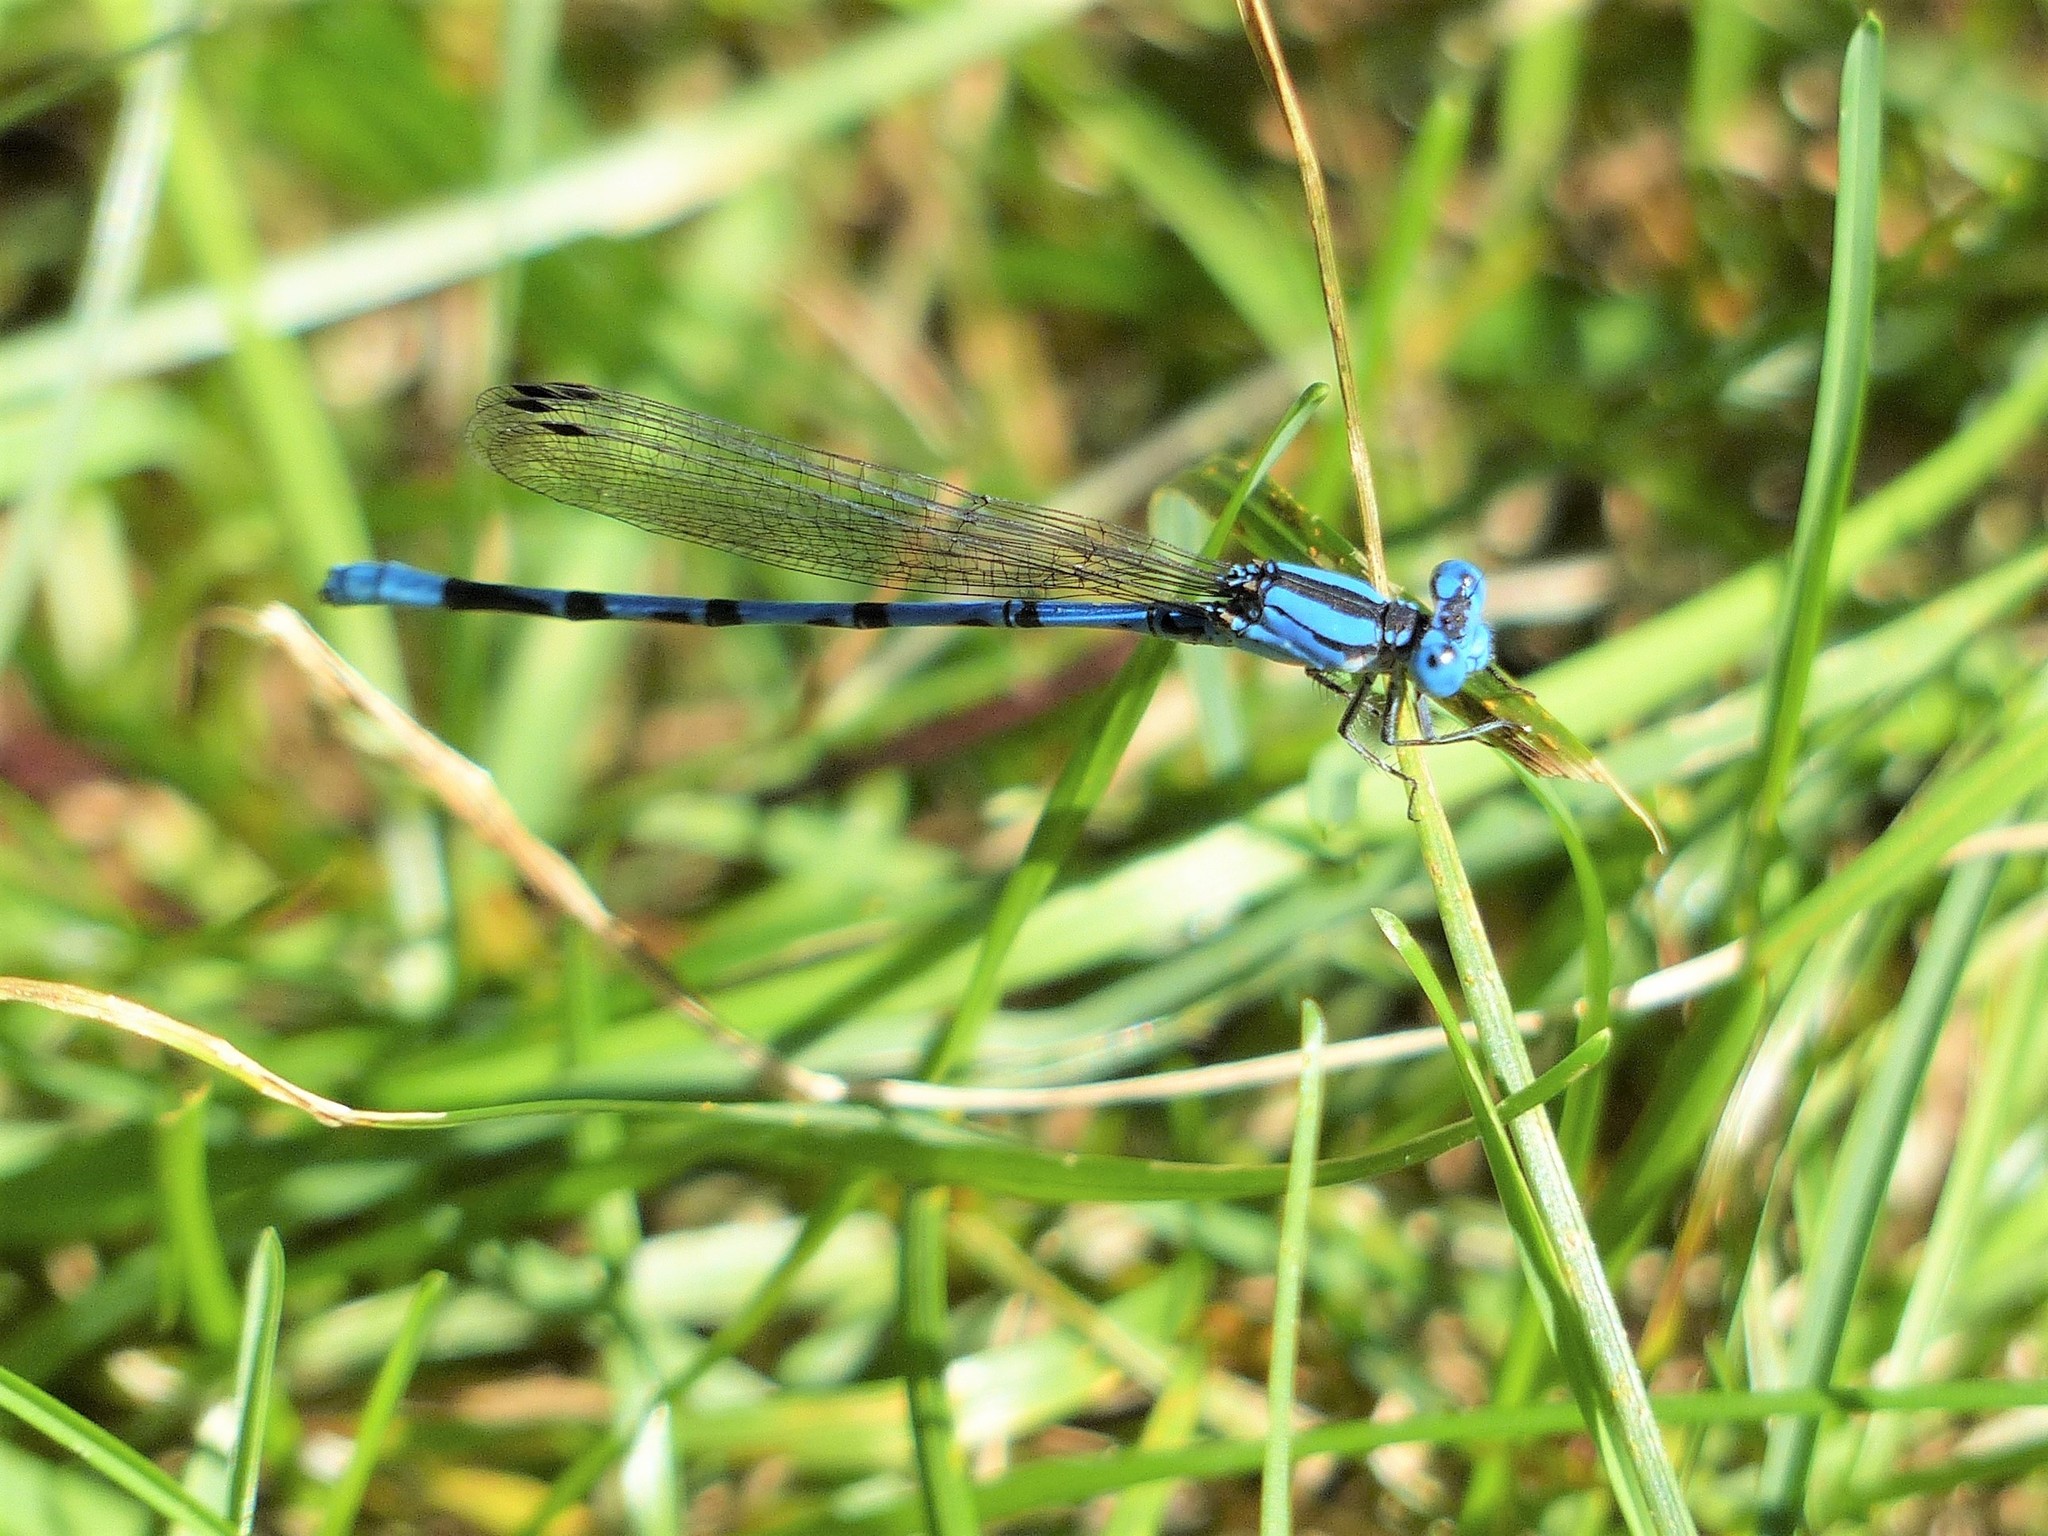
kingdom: Animalia
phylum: Arthropoda
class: Insecta
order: Odonata
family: Coenagrionidae
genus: Argia
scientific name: Argia funebris
